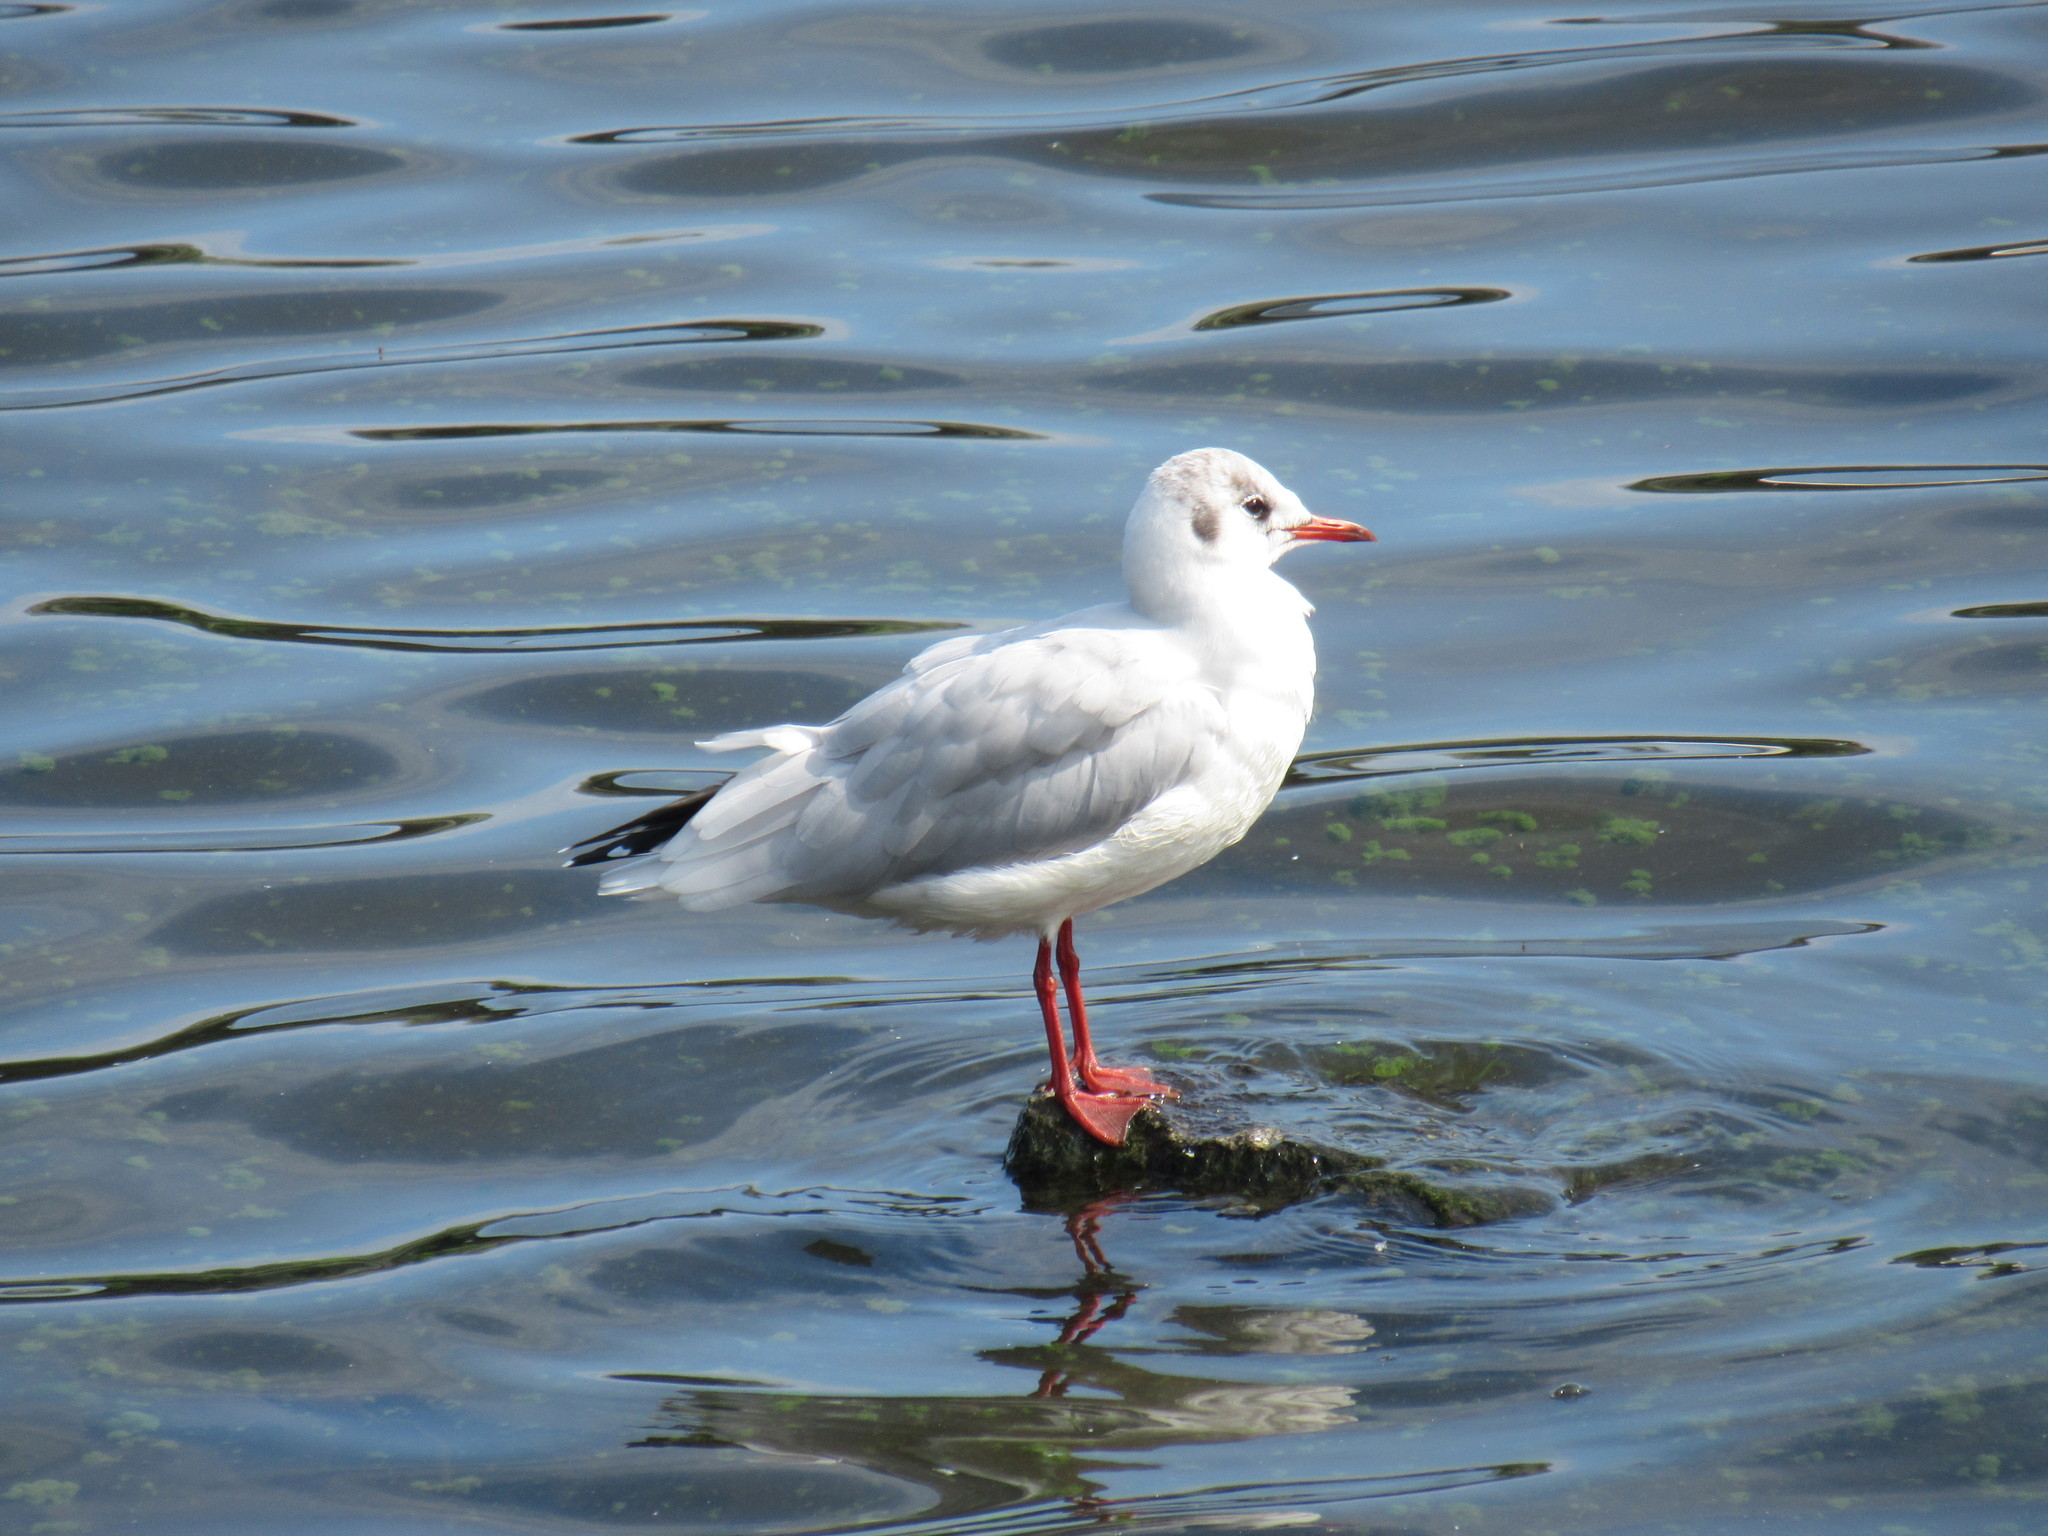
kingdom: Animalia
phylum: Chordata
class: Aves
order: Charadriiformes
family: Laridae
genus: Chroicocephalus
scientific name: Chroicocephalus ridibundus
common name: Black-headed gull
